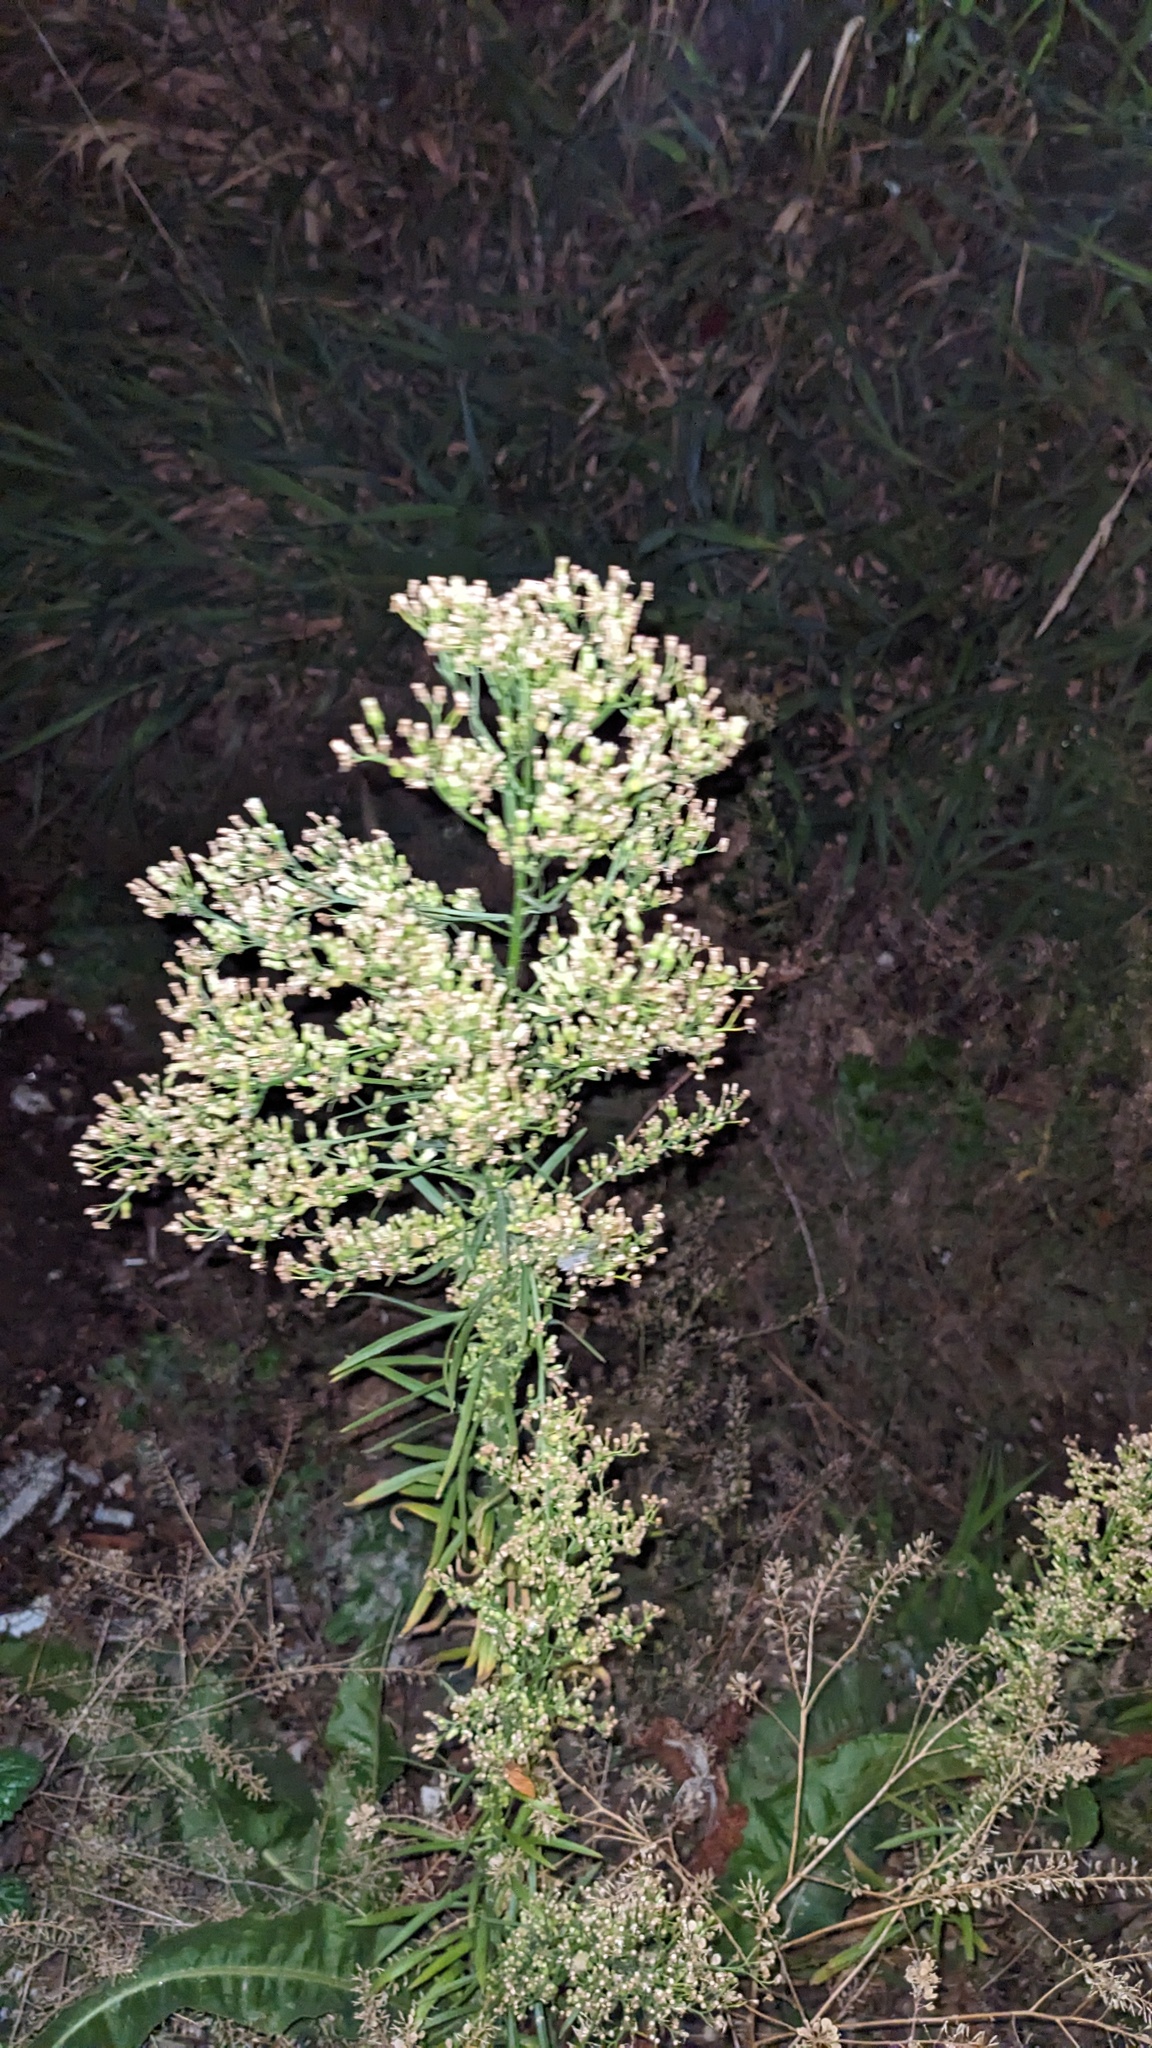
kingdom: Plantae
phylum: Tracheophyta
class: Magnoliopsida
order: Asterales
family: Asteraceae
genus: Erigeron
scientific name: Erigeron canadensis
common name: Canadian fleabane
